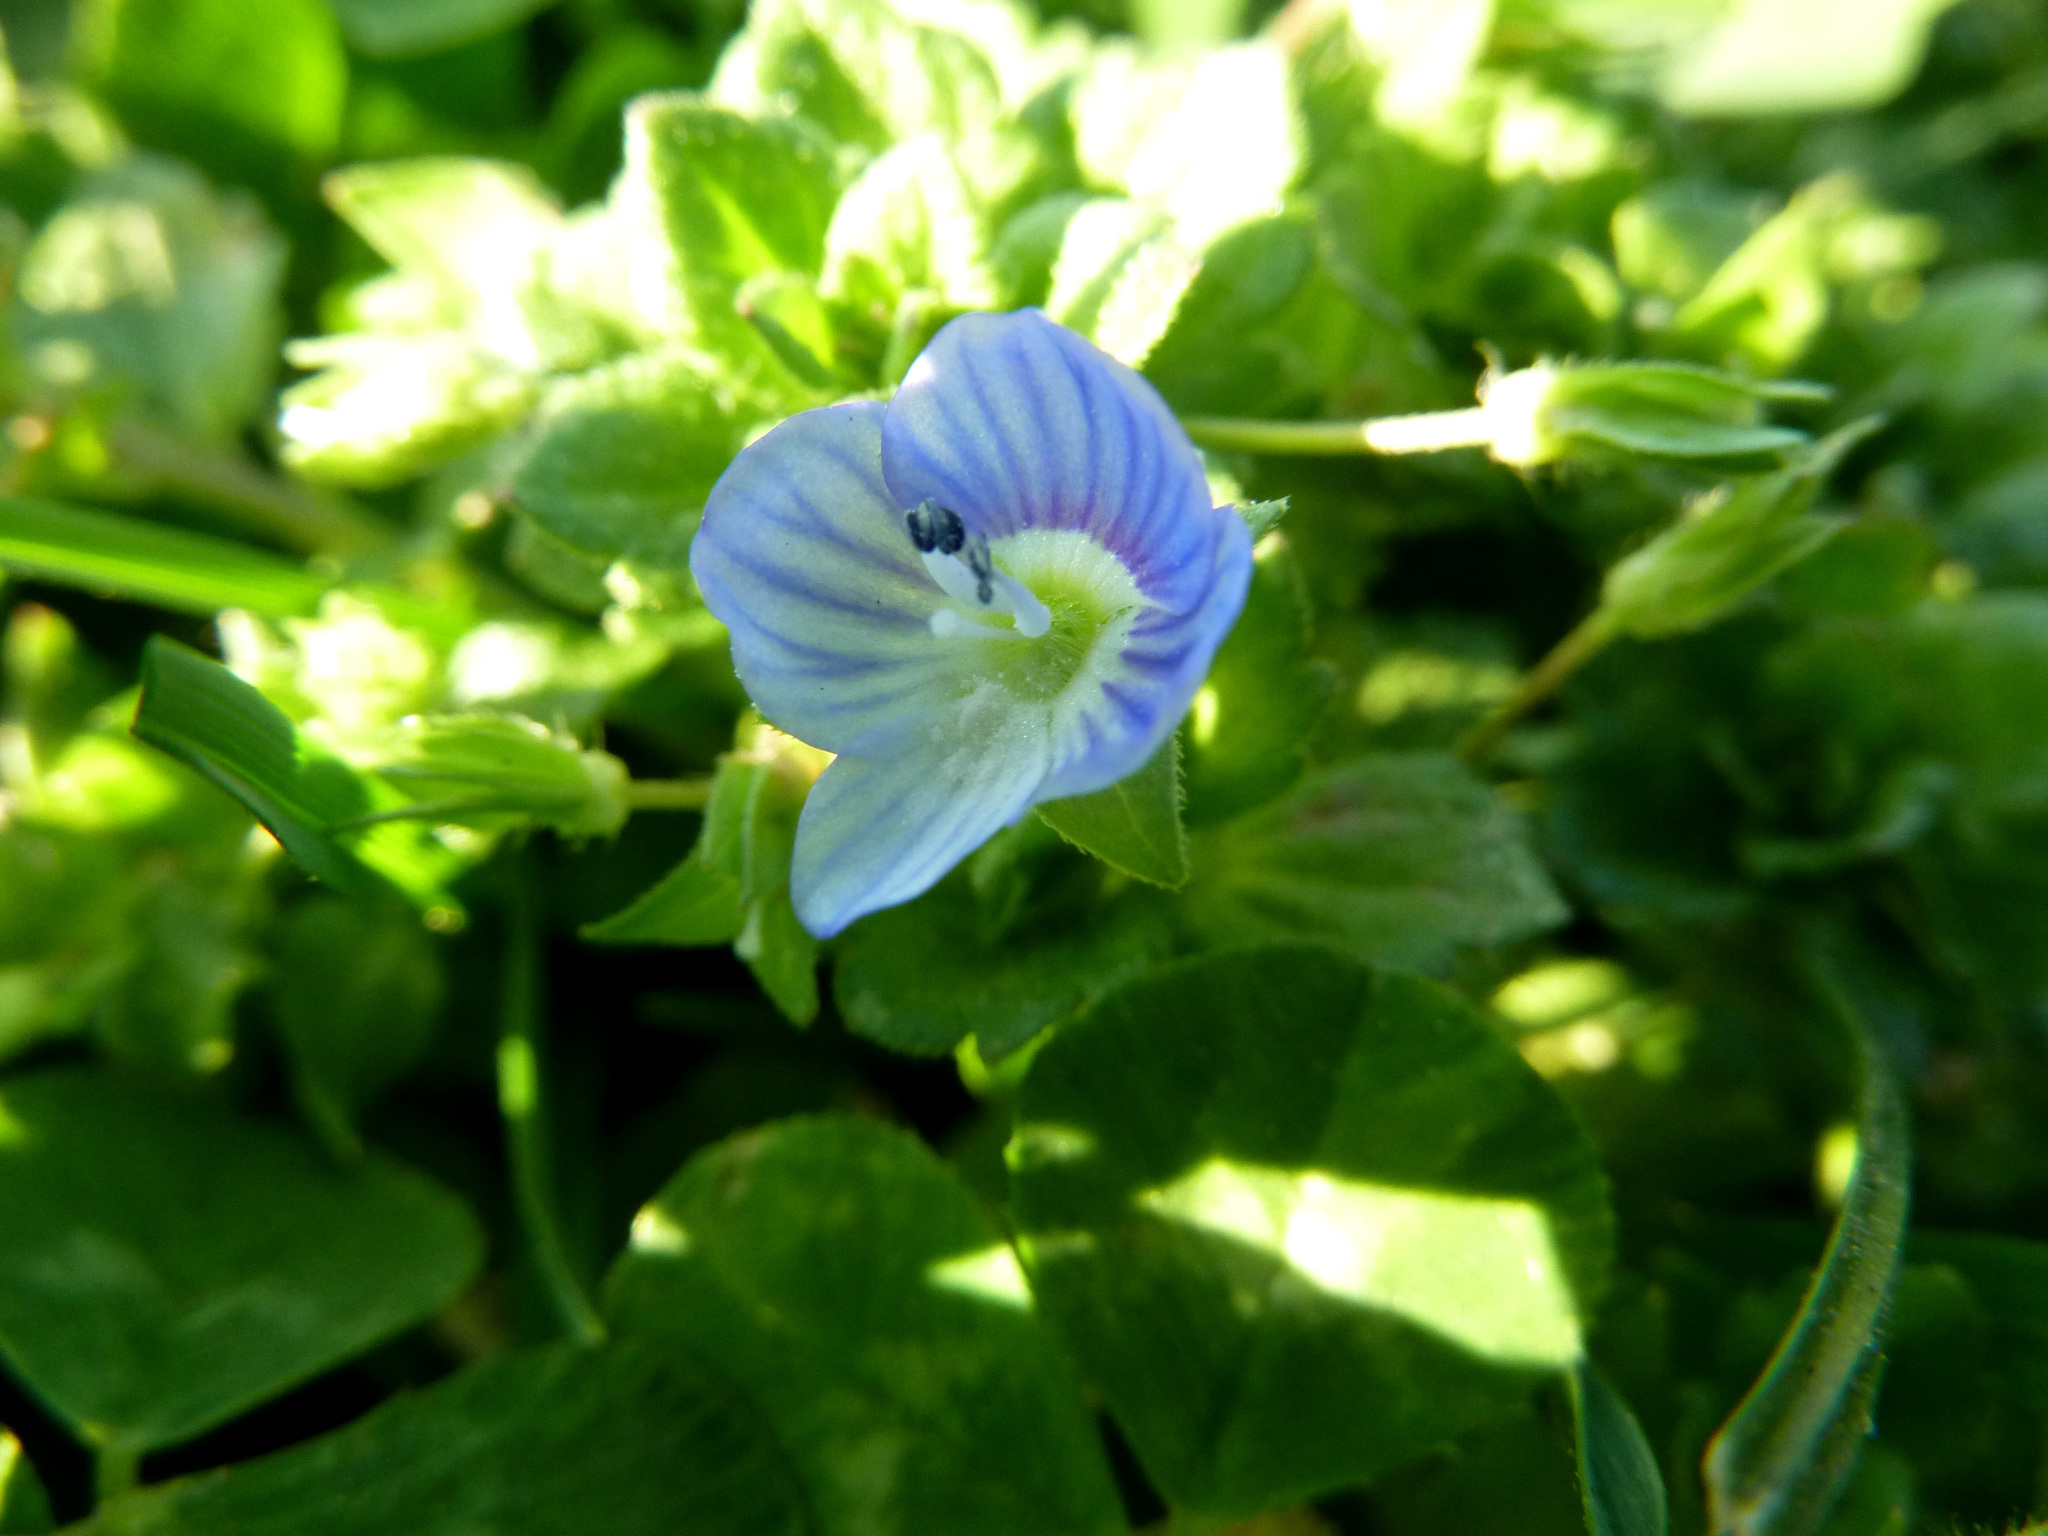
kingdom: Plantae
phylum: Tracheophyta
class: Magnoliopsida
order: Lamiales
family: Plantaginaceae
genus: Veronica
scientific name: Veronica persica
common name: Common field-speedwell
